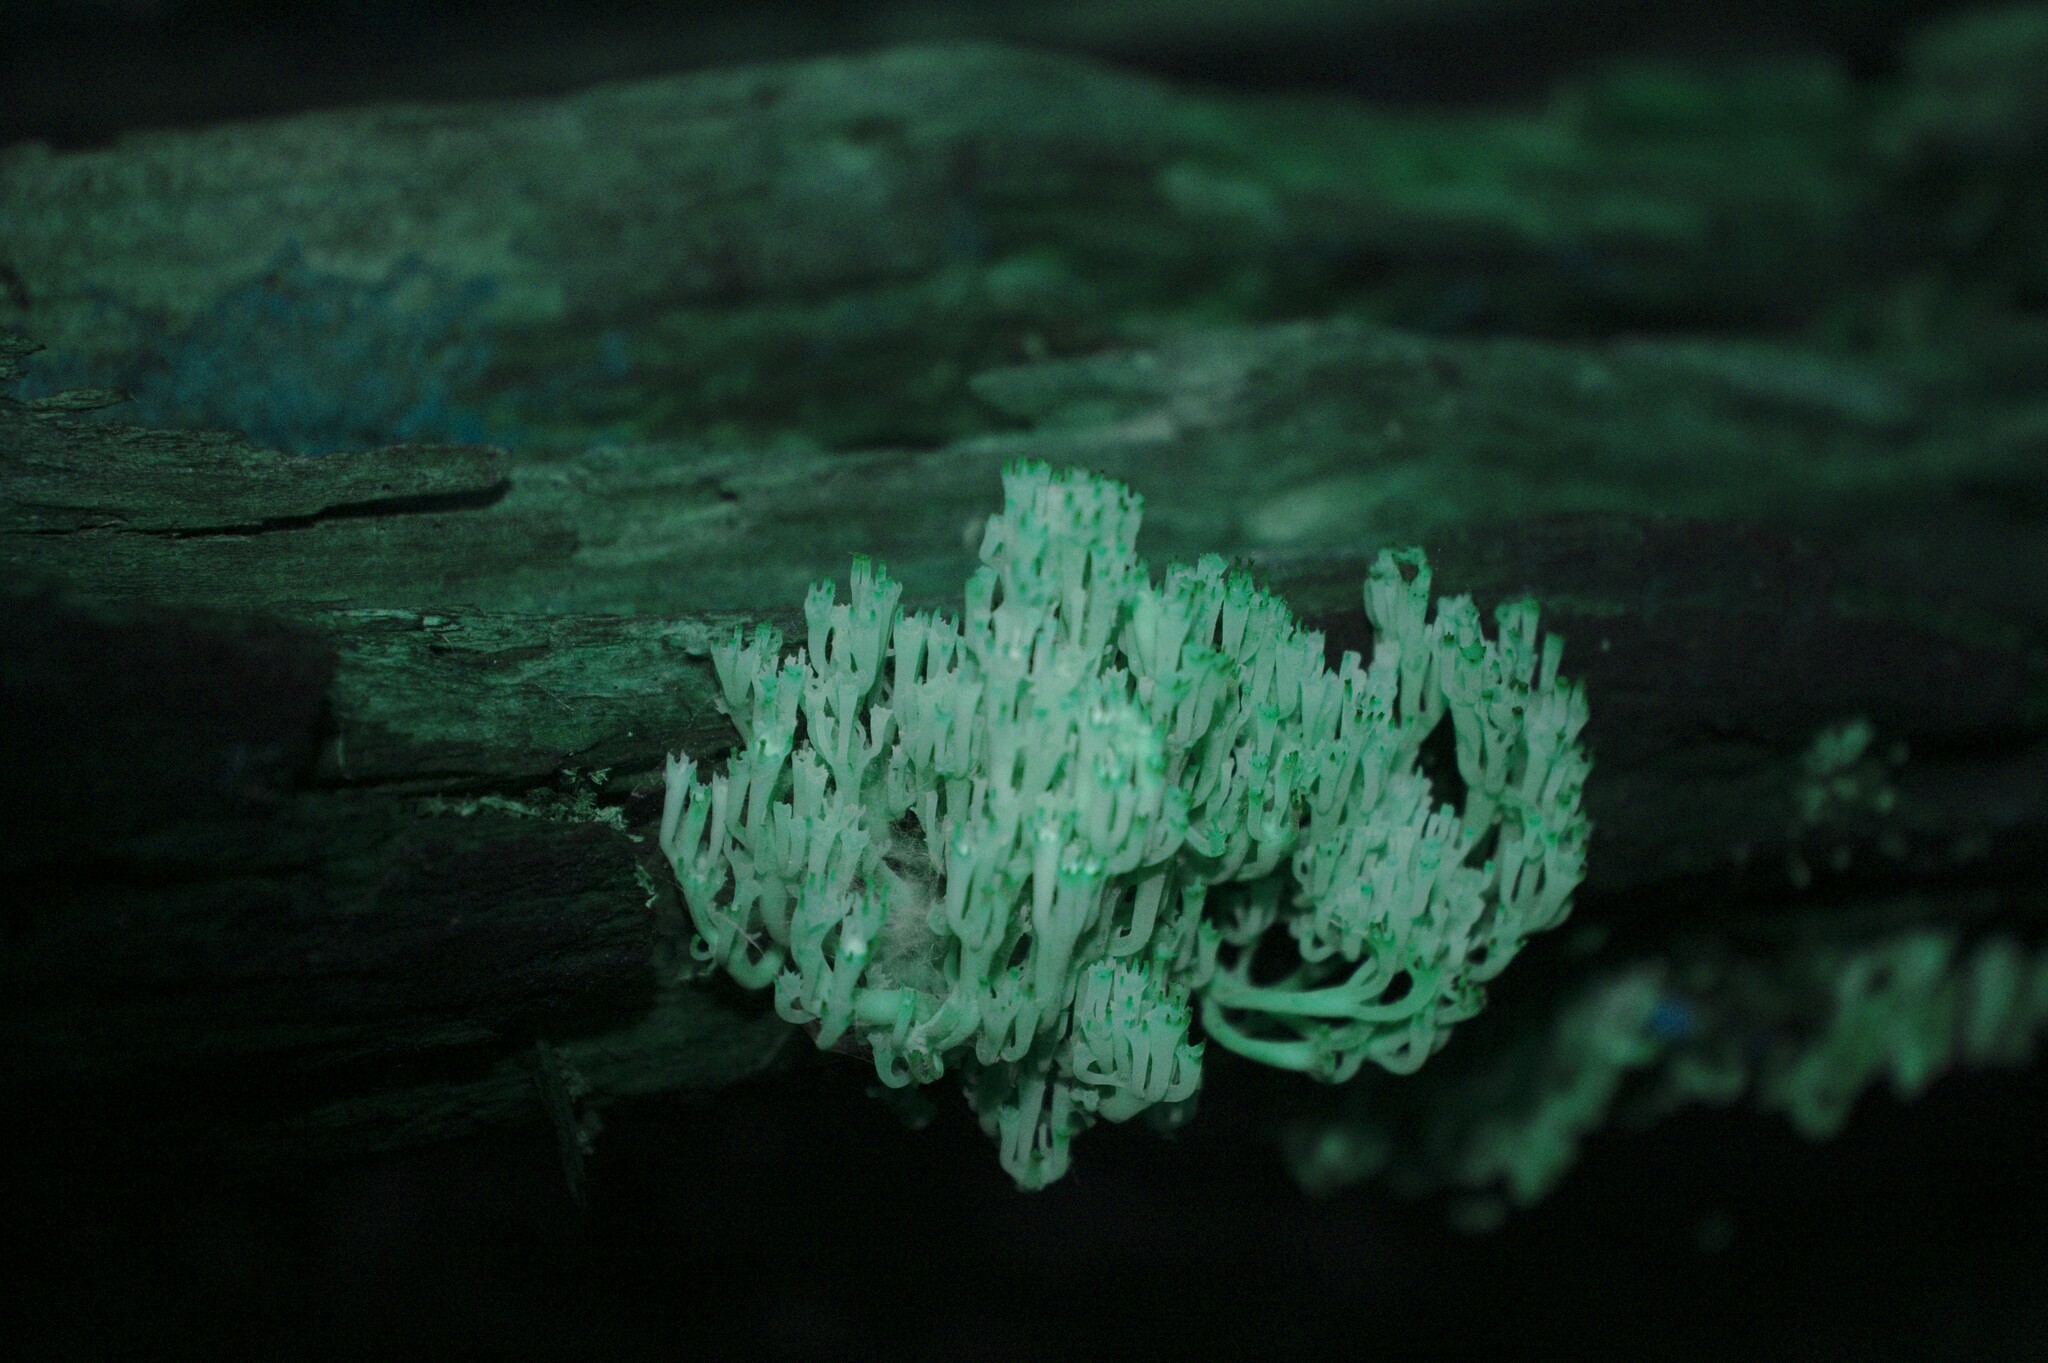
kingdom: Fungi
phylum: Basidiomycota
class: Agaricomycetes
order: Russulales
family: Auriscalpiaceae
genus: Artomyces
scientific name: Artomyces pyxidatus
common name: Crown-tipped coral fungus
